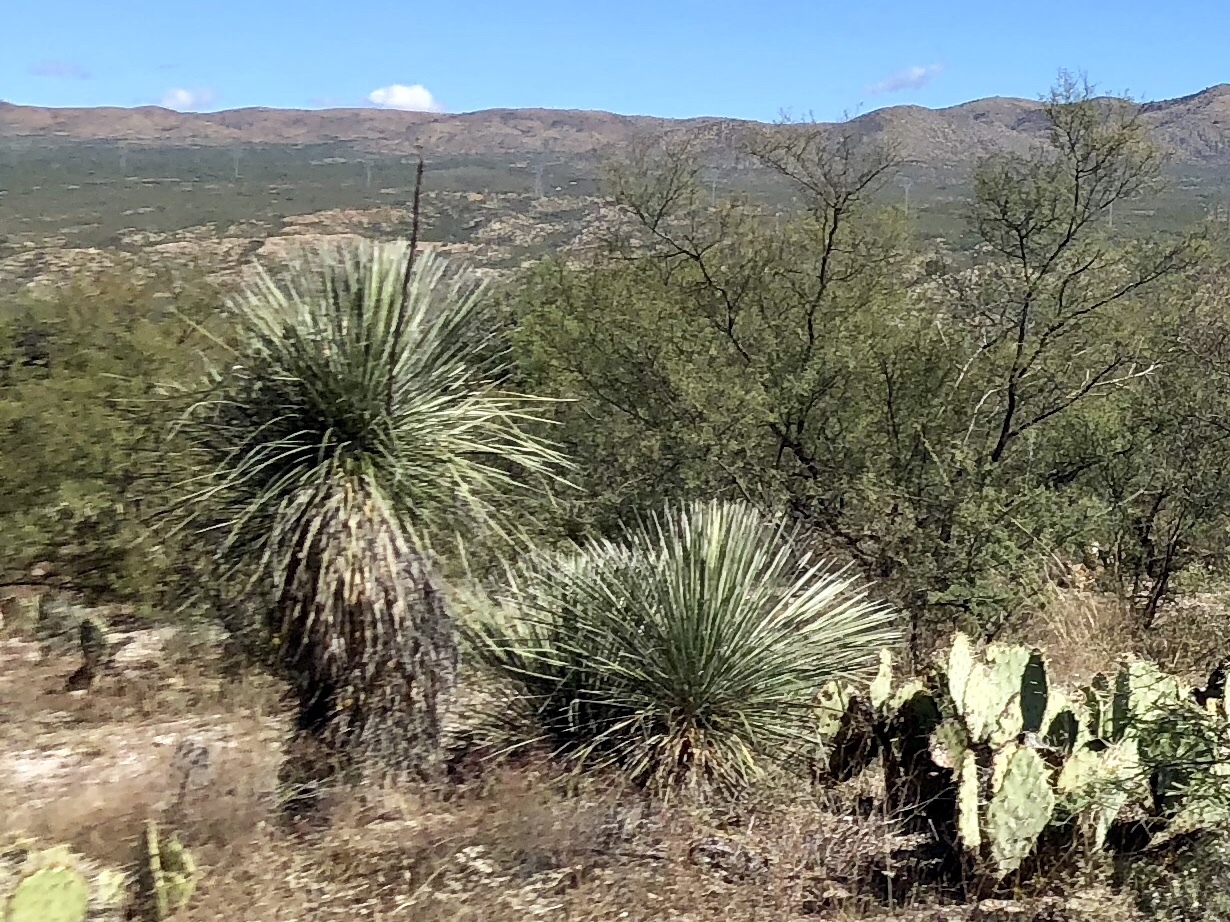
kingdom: Plantae
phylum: Tracheophyta
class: Liliopsida
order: Asparagales
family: Asparagaceae
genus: Yucca
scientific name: Yucca elata
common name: Palmella
